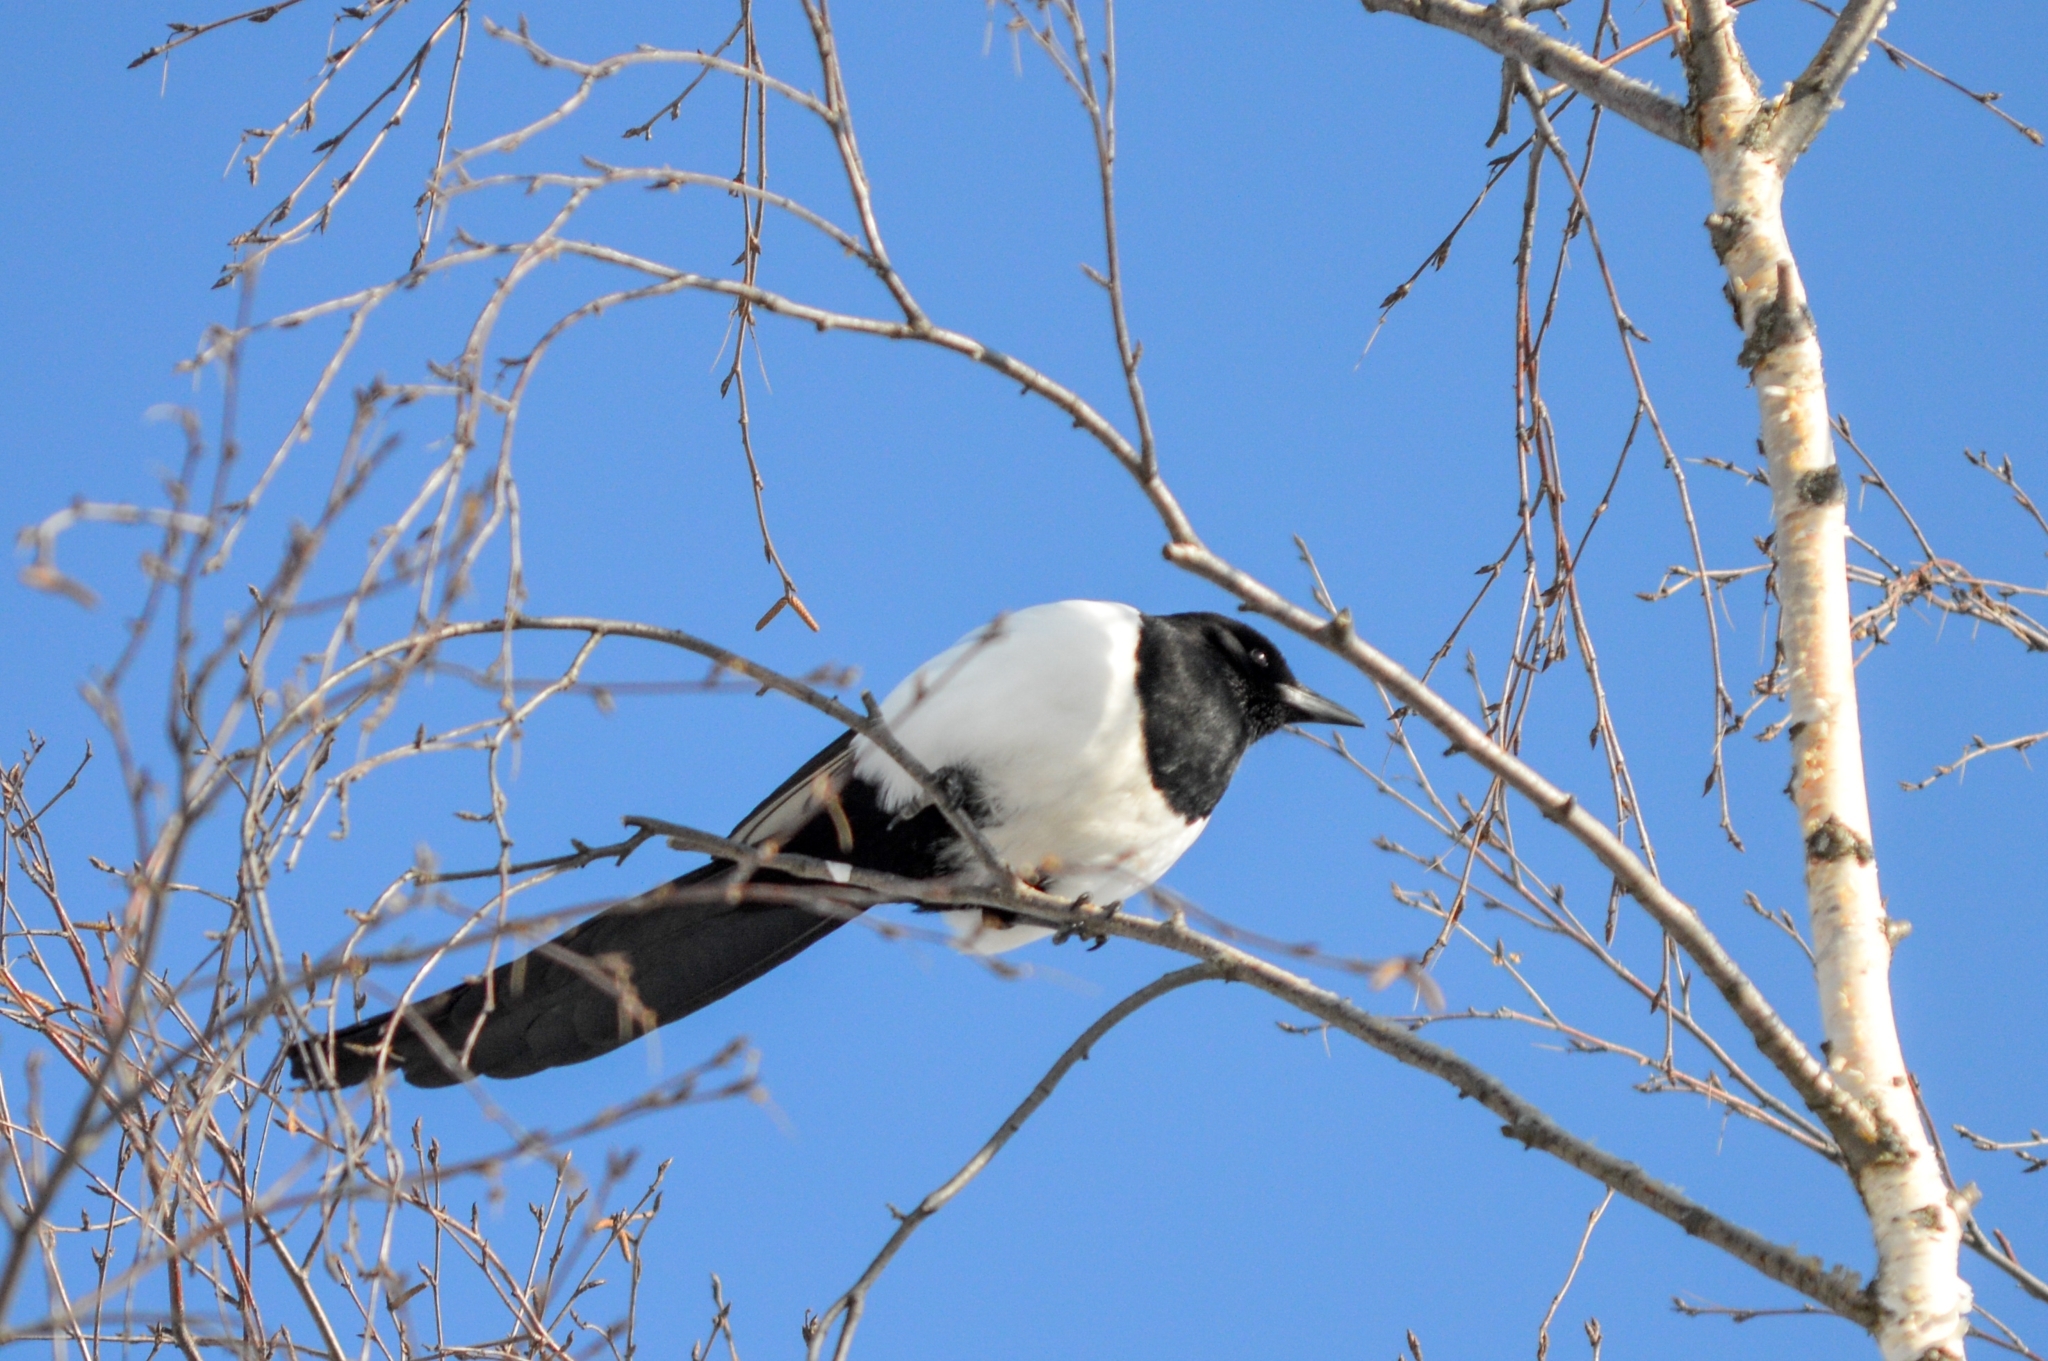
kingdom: Animalia
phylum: Chordata
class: Aves
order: Passeriformes
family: Corvidae
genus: Pica
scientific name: Pica pica
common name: Eurasian magpie
